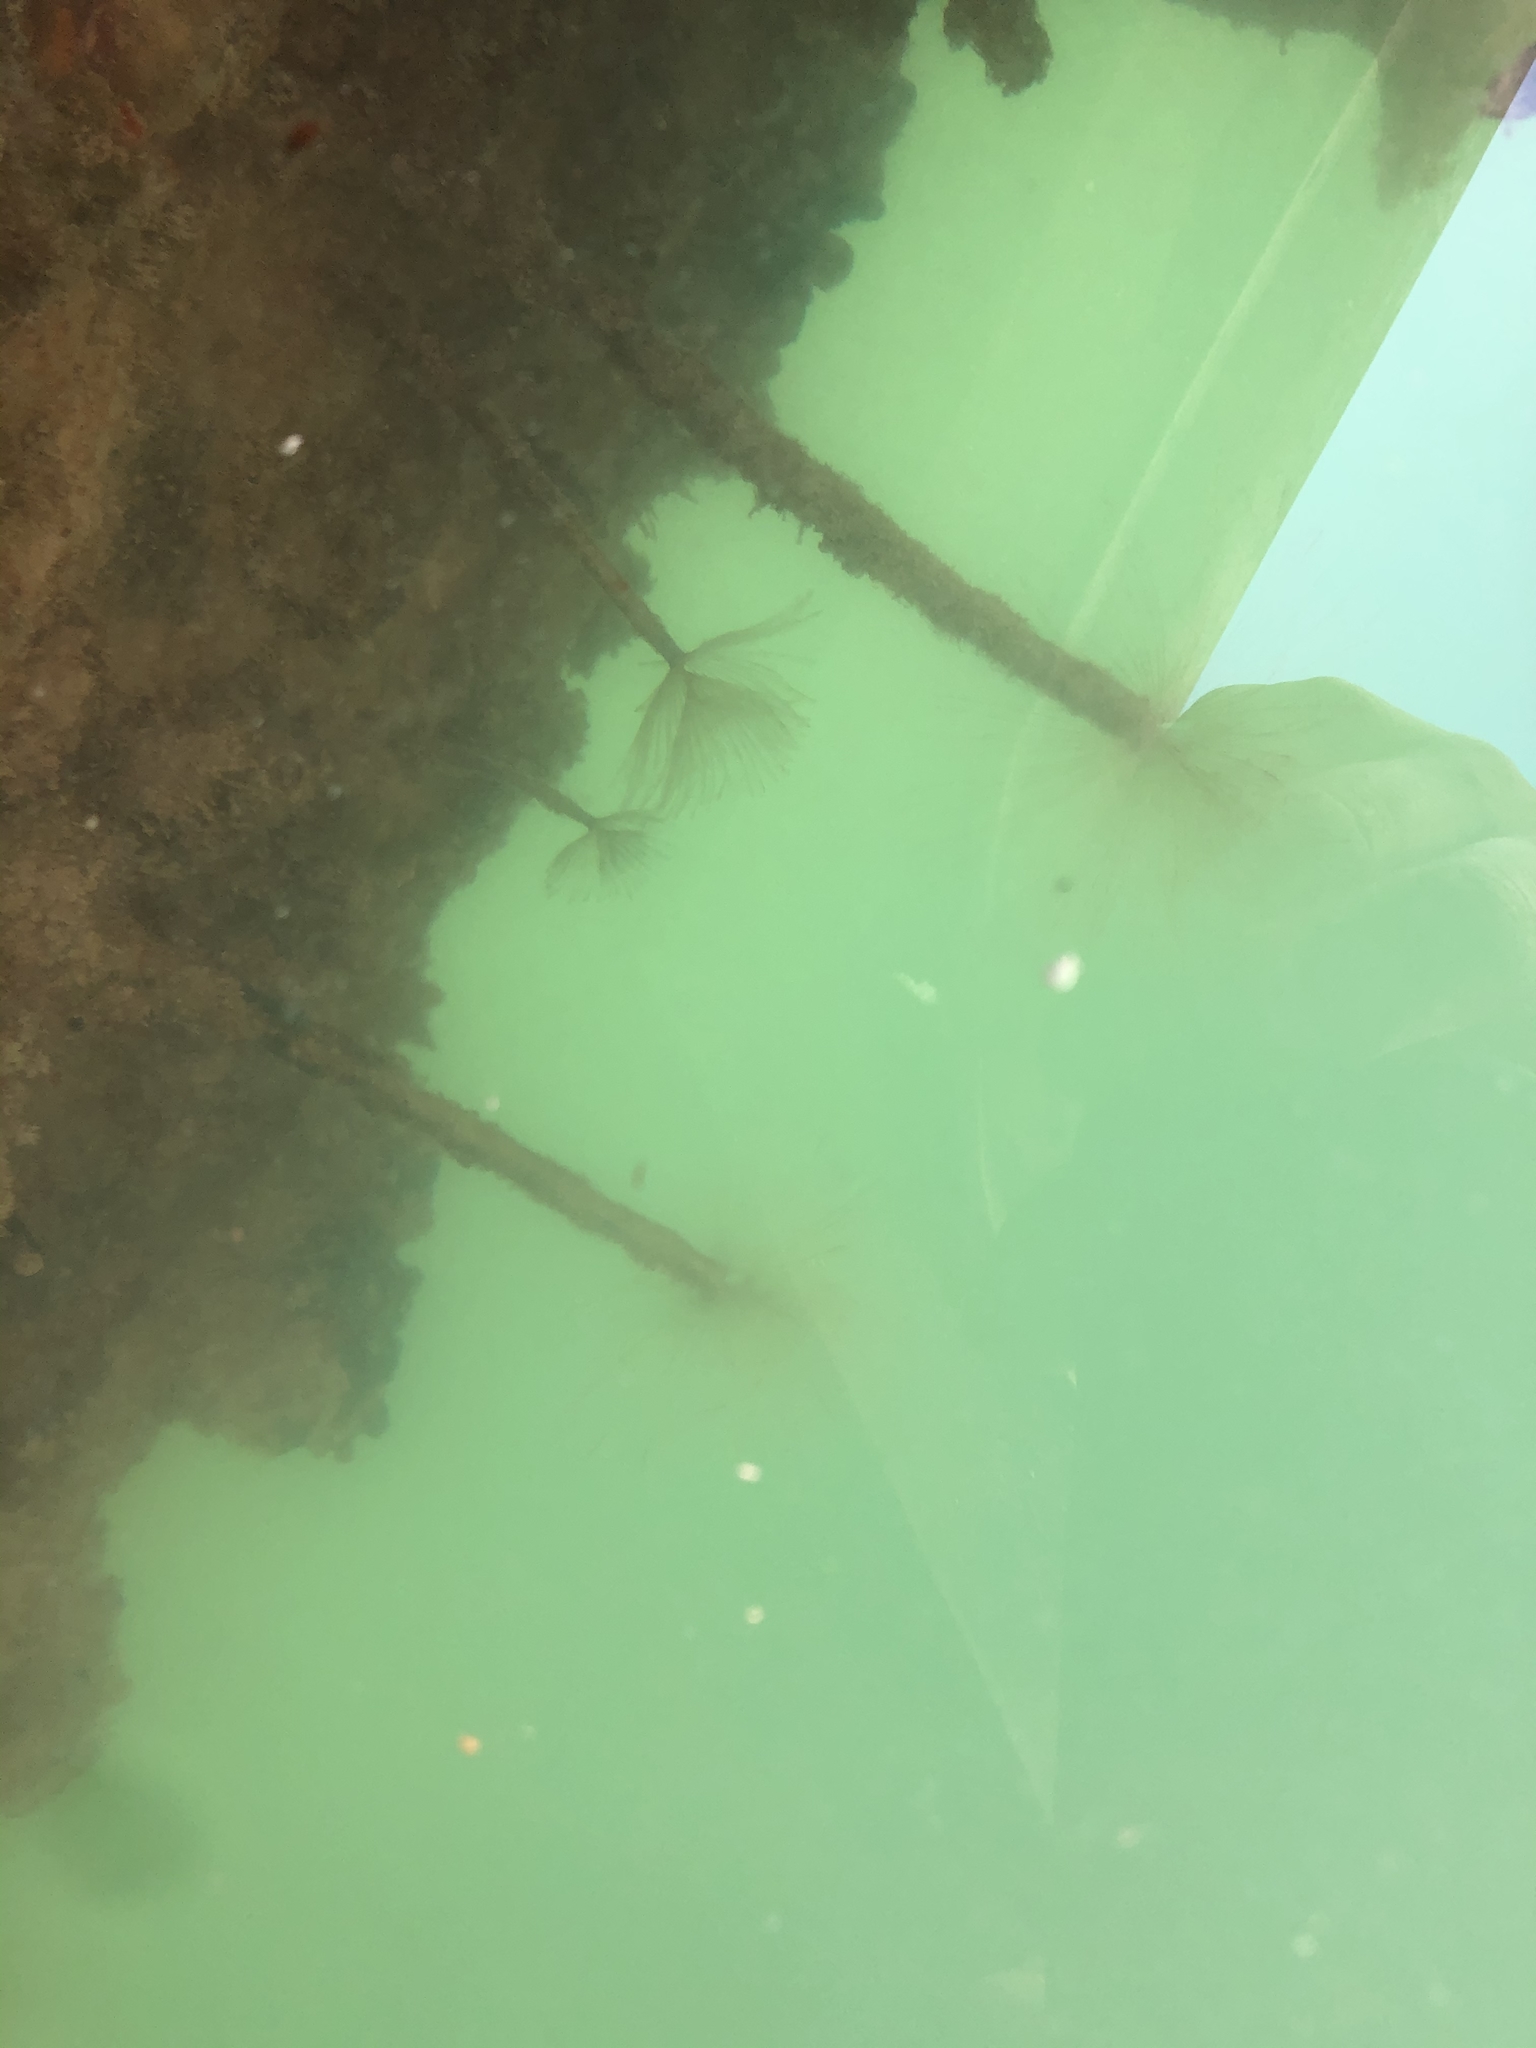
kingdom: Animalia
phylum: Annelida
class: Polychaeta
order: Sabellida
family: Sabellidae
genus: Sabella
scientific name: Sabella spallanzanii
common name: Feather duster worm
